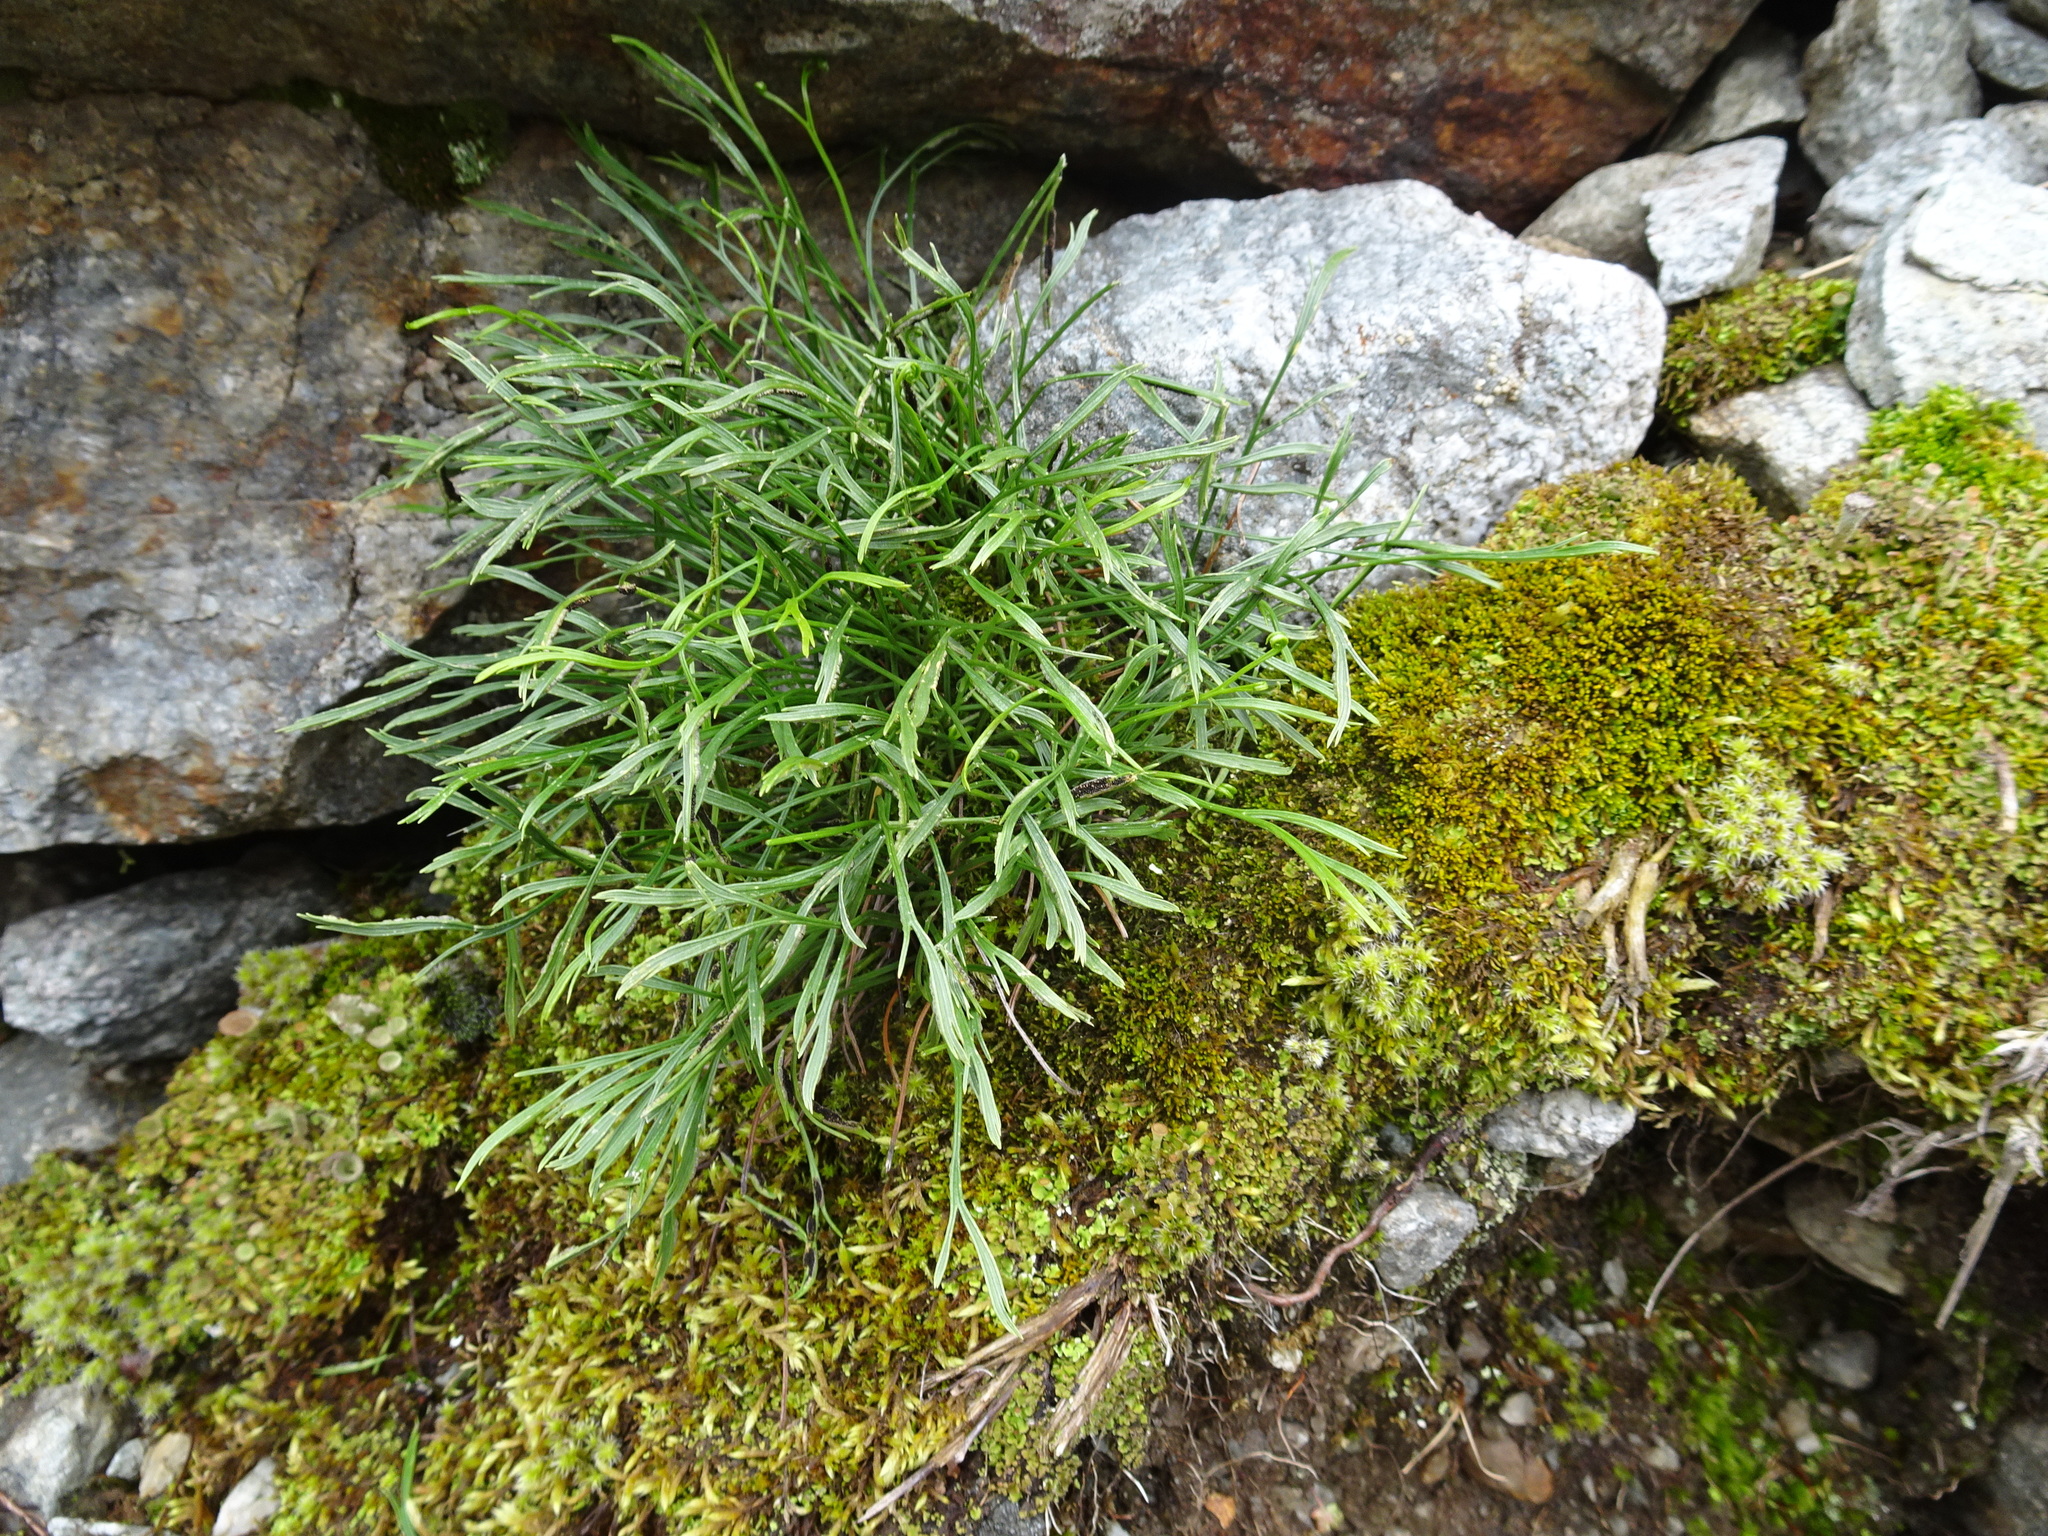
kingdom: Plantae
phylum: Tracheophyta
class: Polypodiopsida
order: Polypodiales
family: Aspleniaceae
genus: Asplenium
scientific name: Asplenium septentrionale
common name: Forked spleenwort
